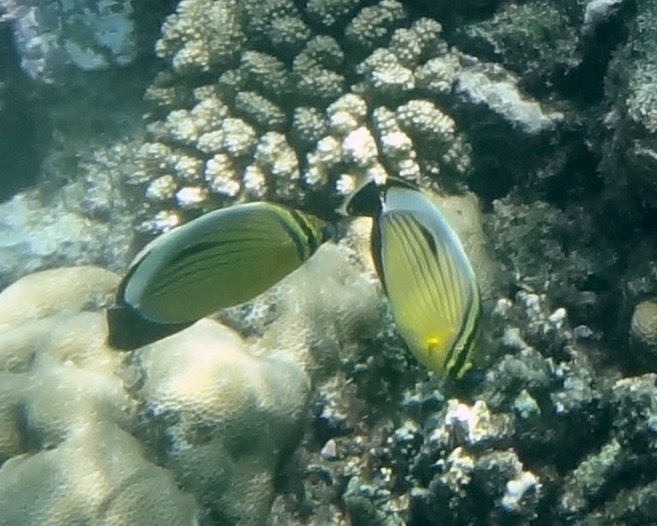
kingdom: Animalia
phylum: Chordata
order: Perciformes
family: Chaetodontidae
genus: Chaetodon
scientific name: Chaetodon austriacus
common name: Exquisite butterflyfish
